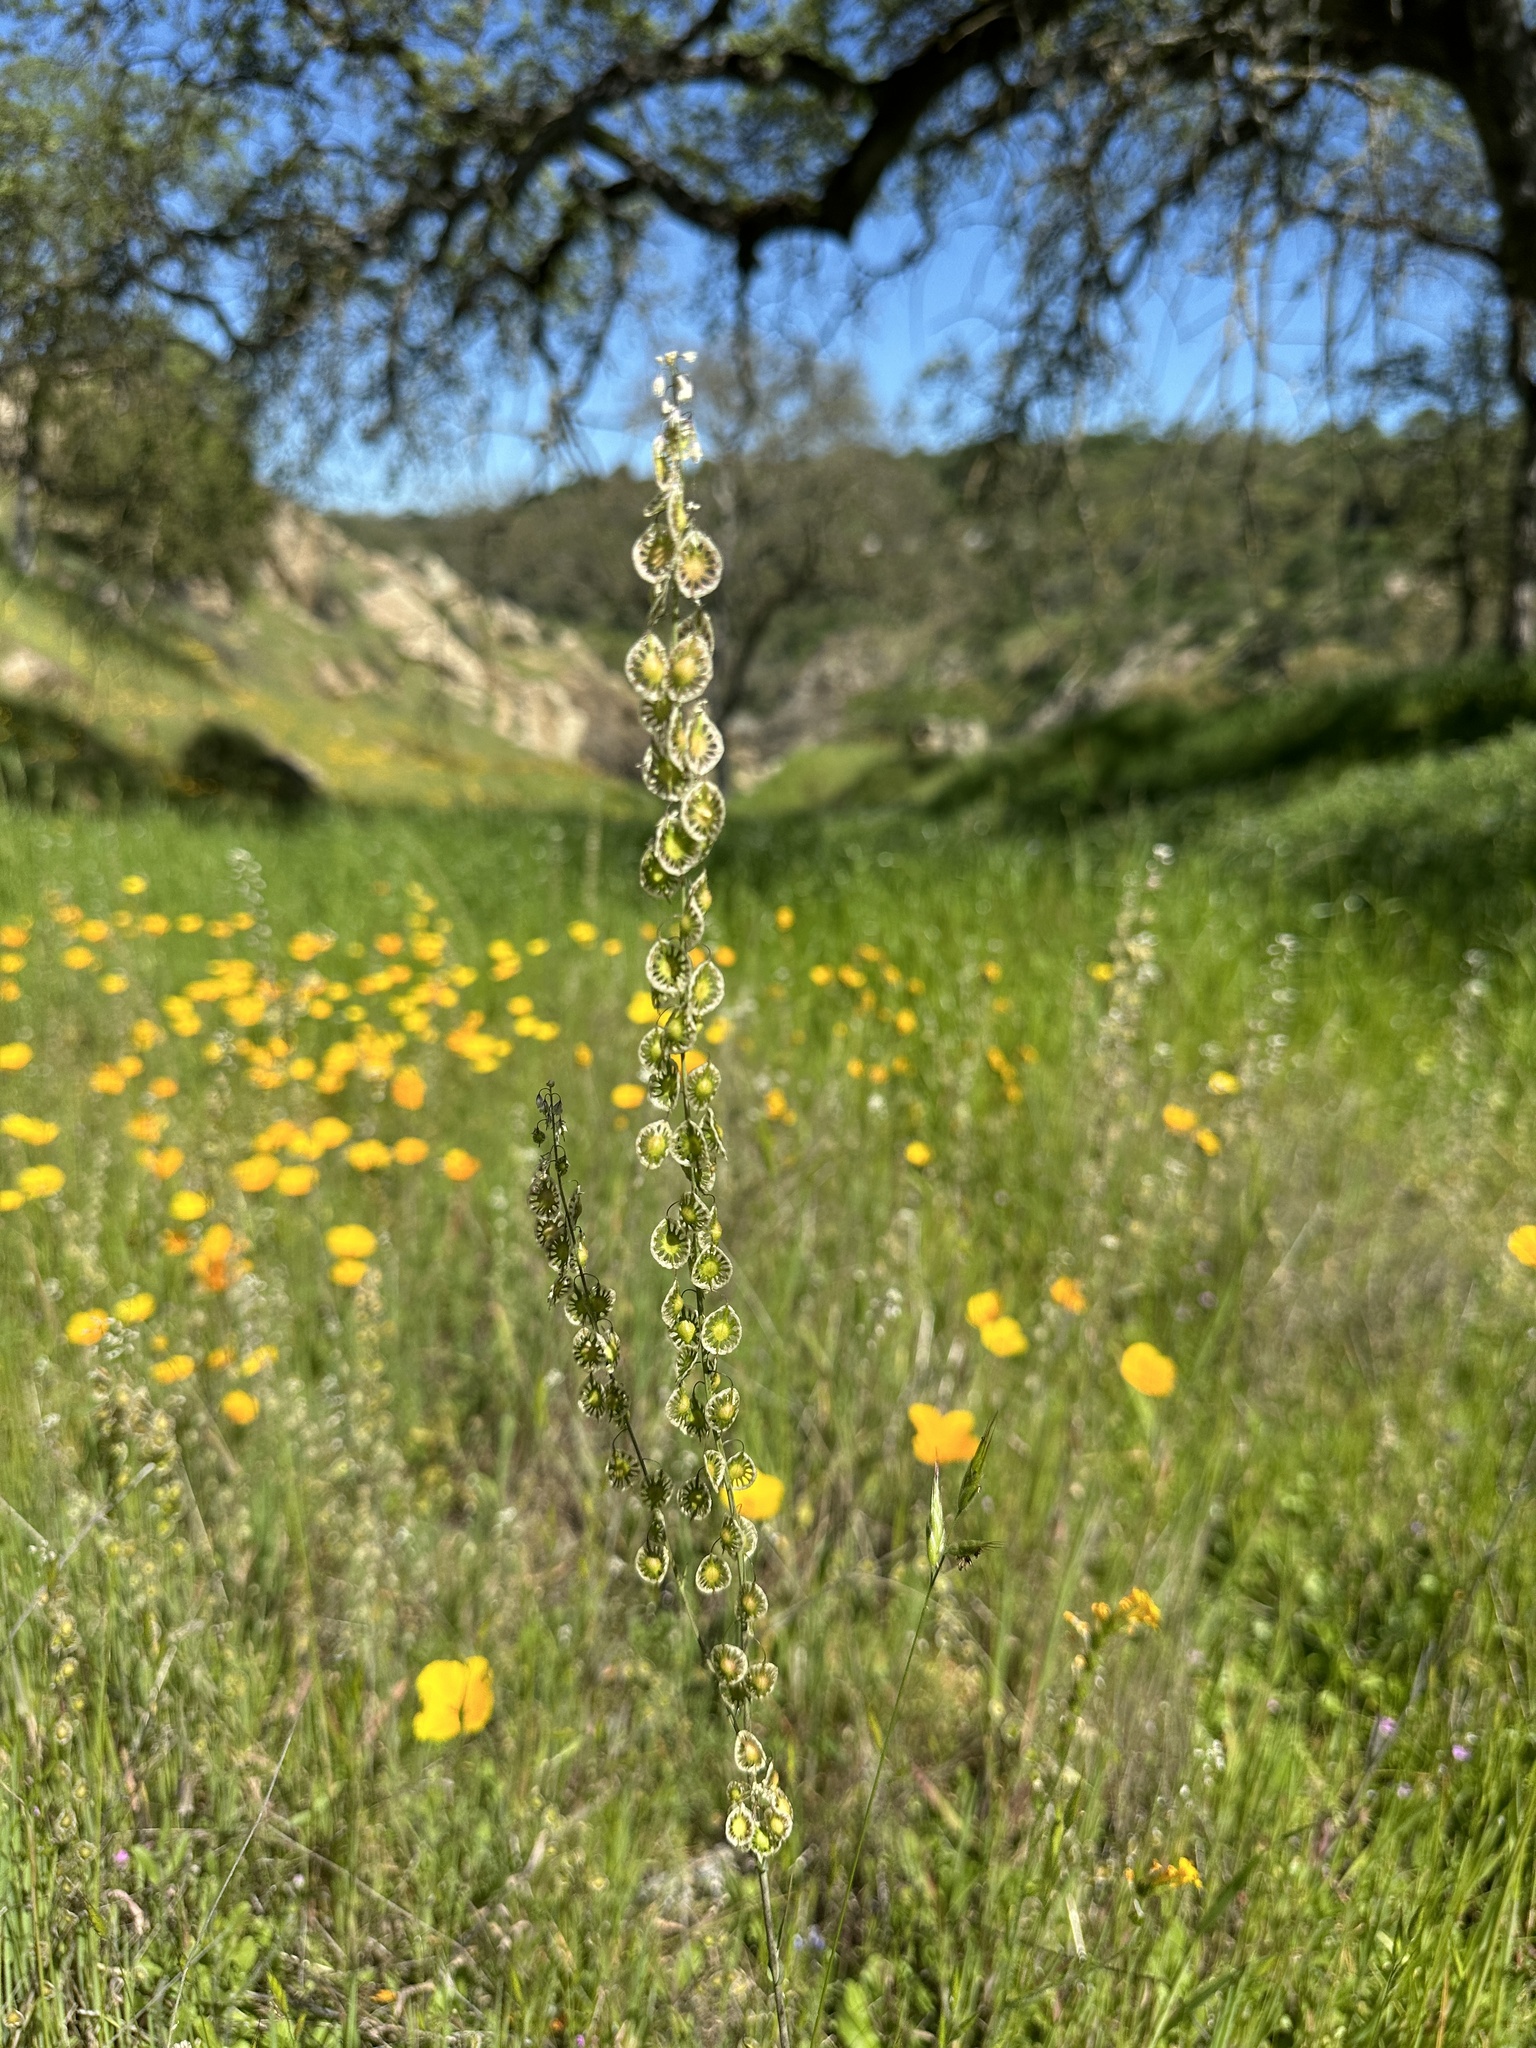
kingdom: Plantae
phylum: Tracheophyta
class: Magnoliopsida
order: Brassicales
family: Brassicaceae
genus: Thysanocarpus
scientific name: Thysanocarpus curvipes
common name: Sand fringepod
